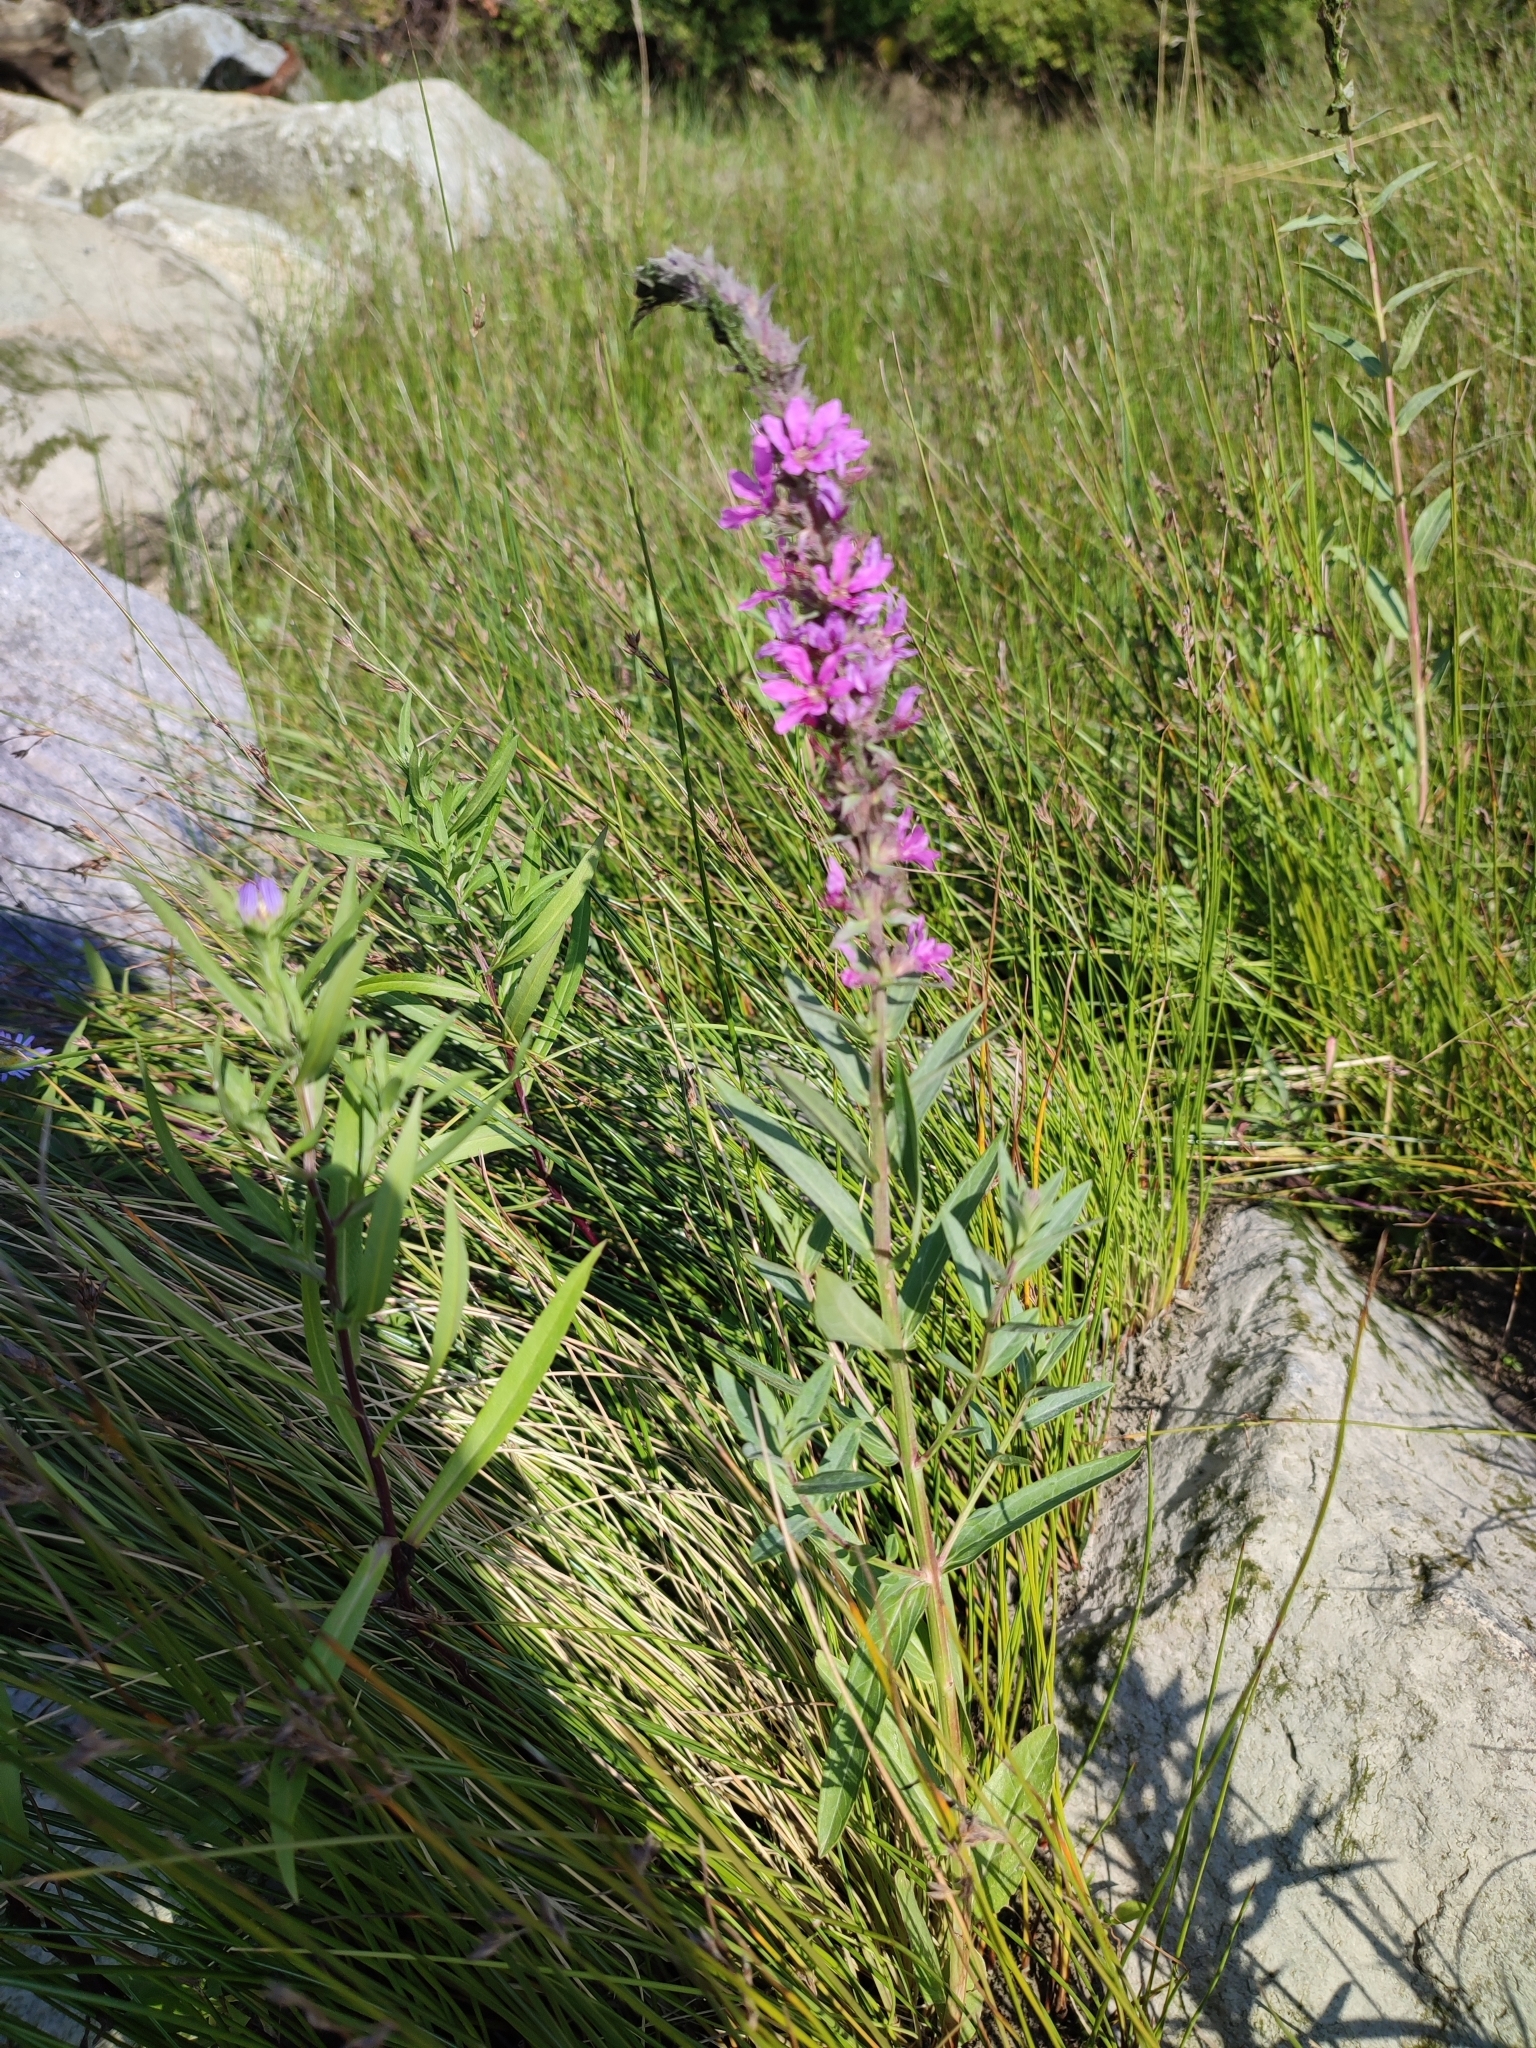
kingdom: Plantae
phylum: Tracheophyta
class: Magnoliopsida
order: Myrtales
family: Lythraceae
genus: Lythrum
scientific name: Lythrum salicaria
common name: Purple loosestrife
